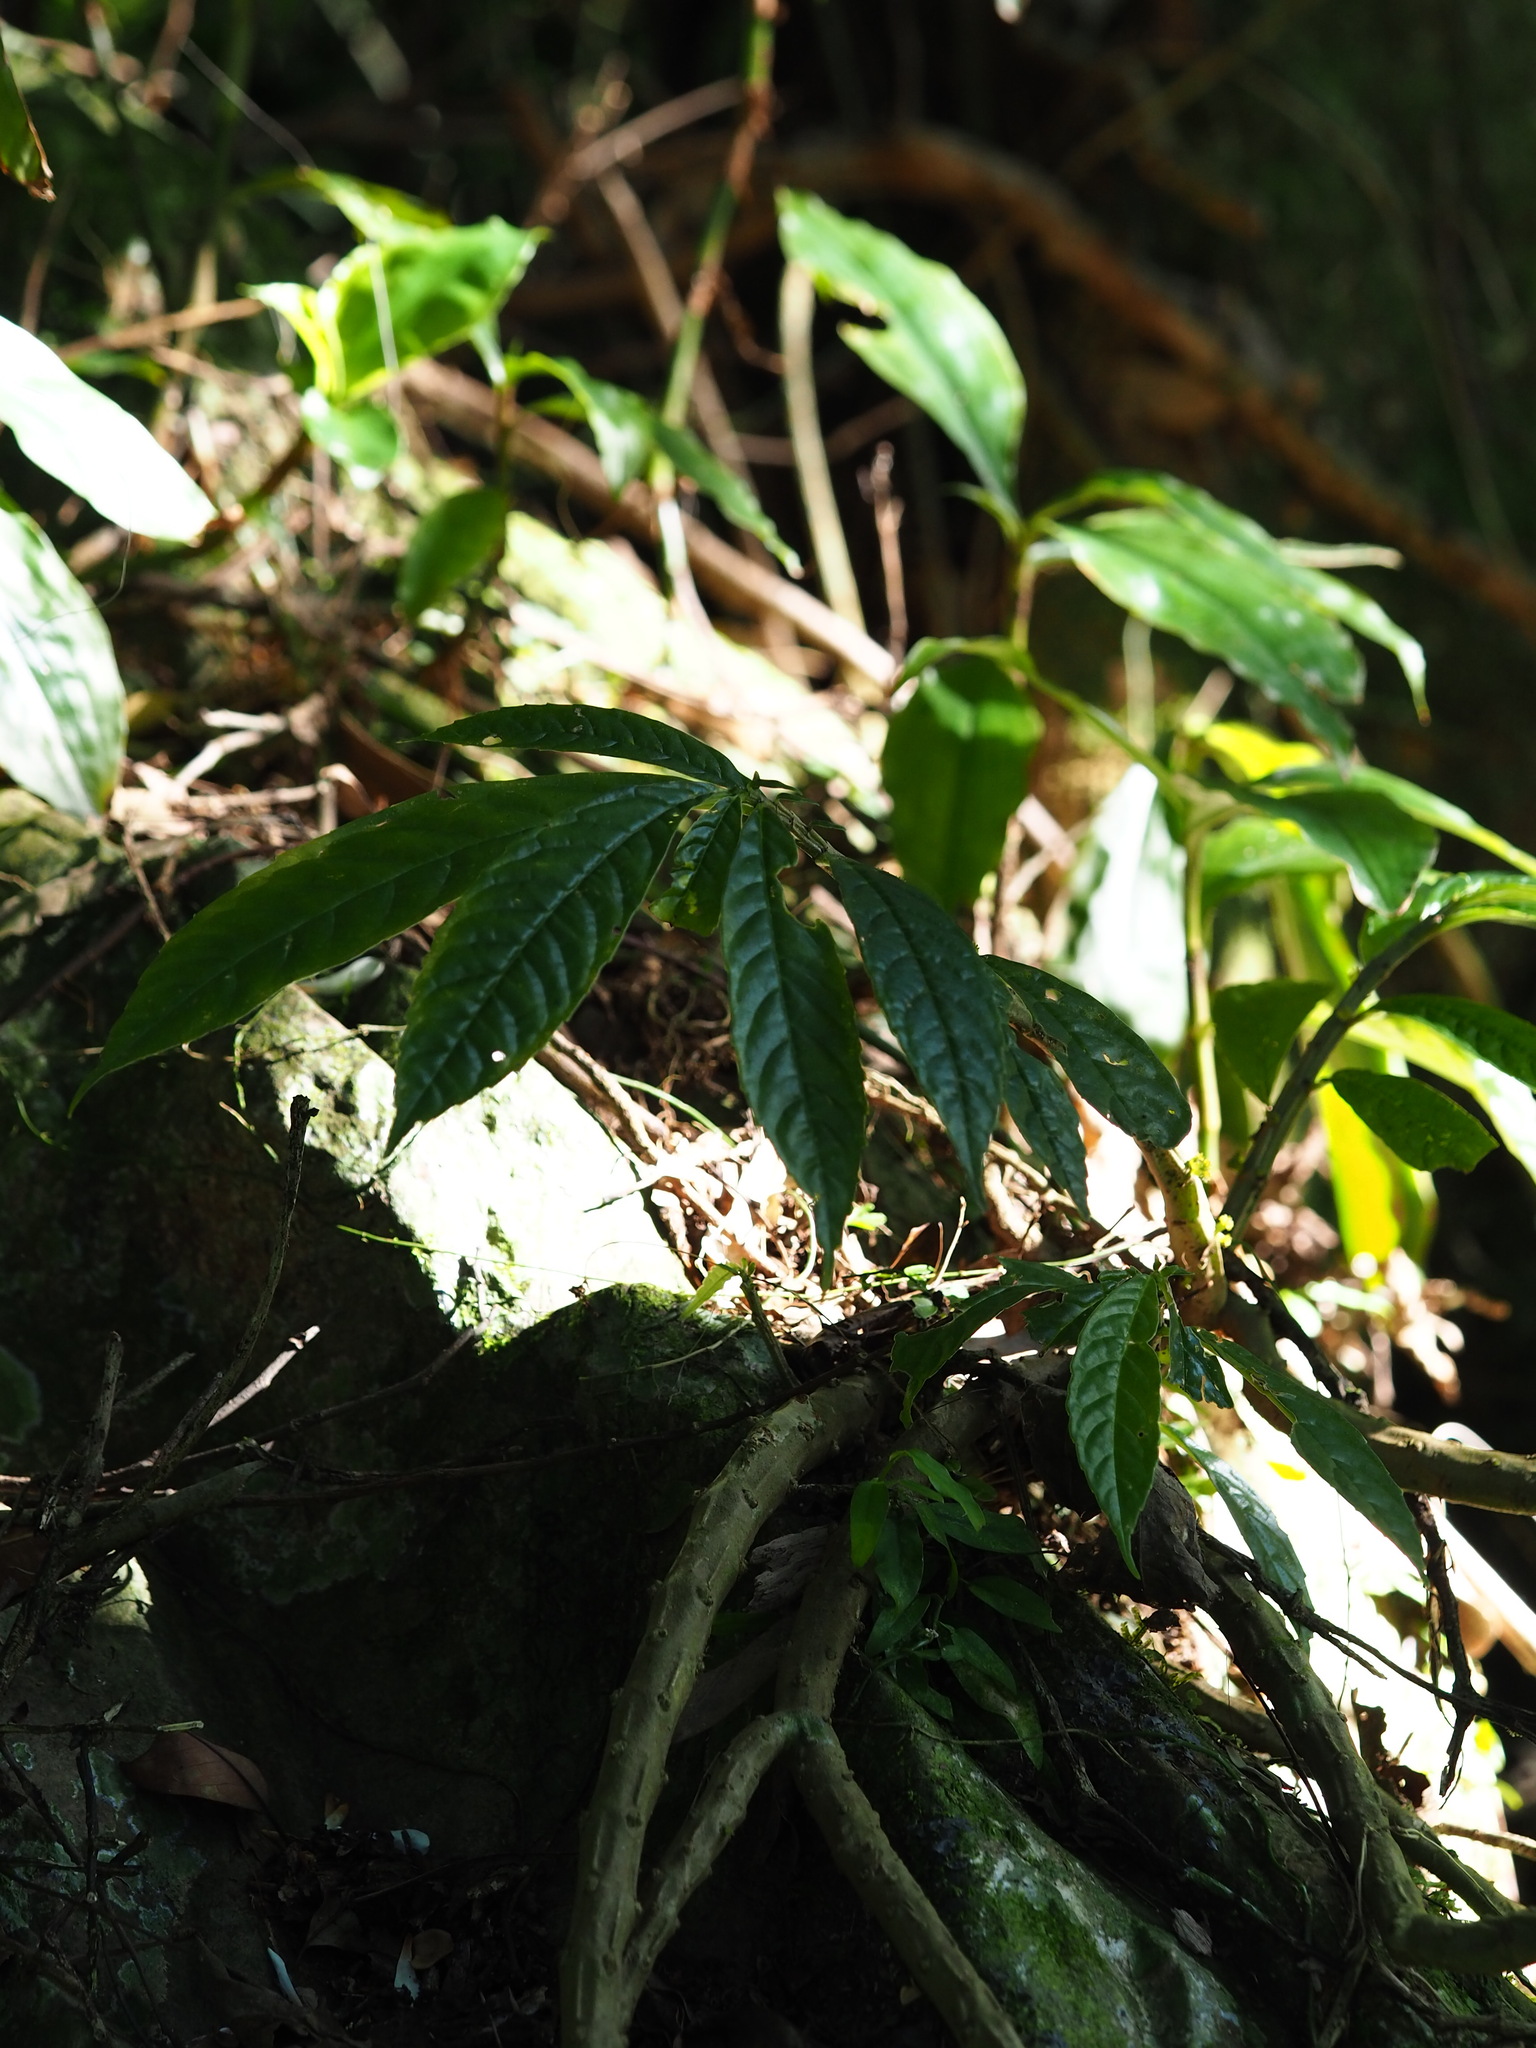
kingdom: Plantae
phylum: Tracheophyta
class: Magnoliopsida
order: Rosales
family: Urticaceae
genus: Procris
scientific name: Procris
